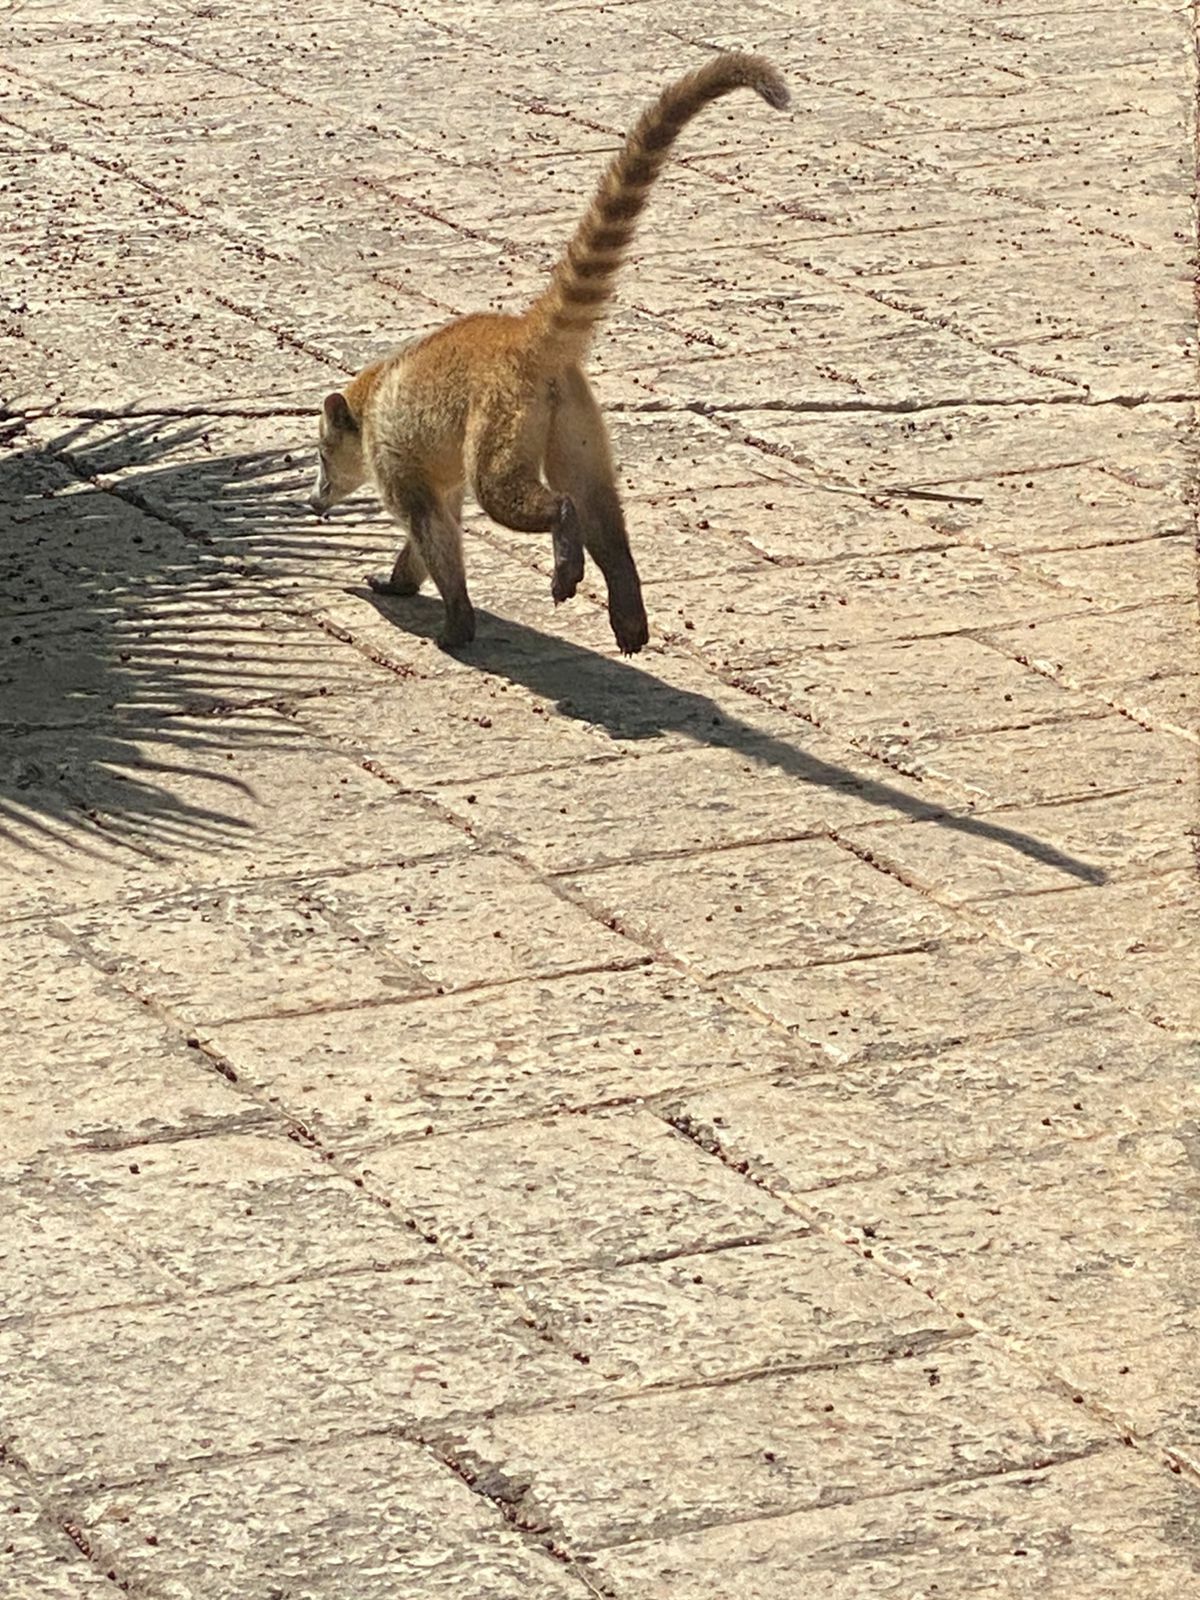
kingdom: Animalia
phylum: Chordata
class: Mammalia
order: Carnivora
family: Procyonidae
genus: Nasua
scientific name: Nasua narica
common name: White-nosed coati
